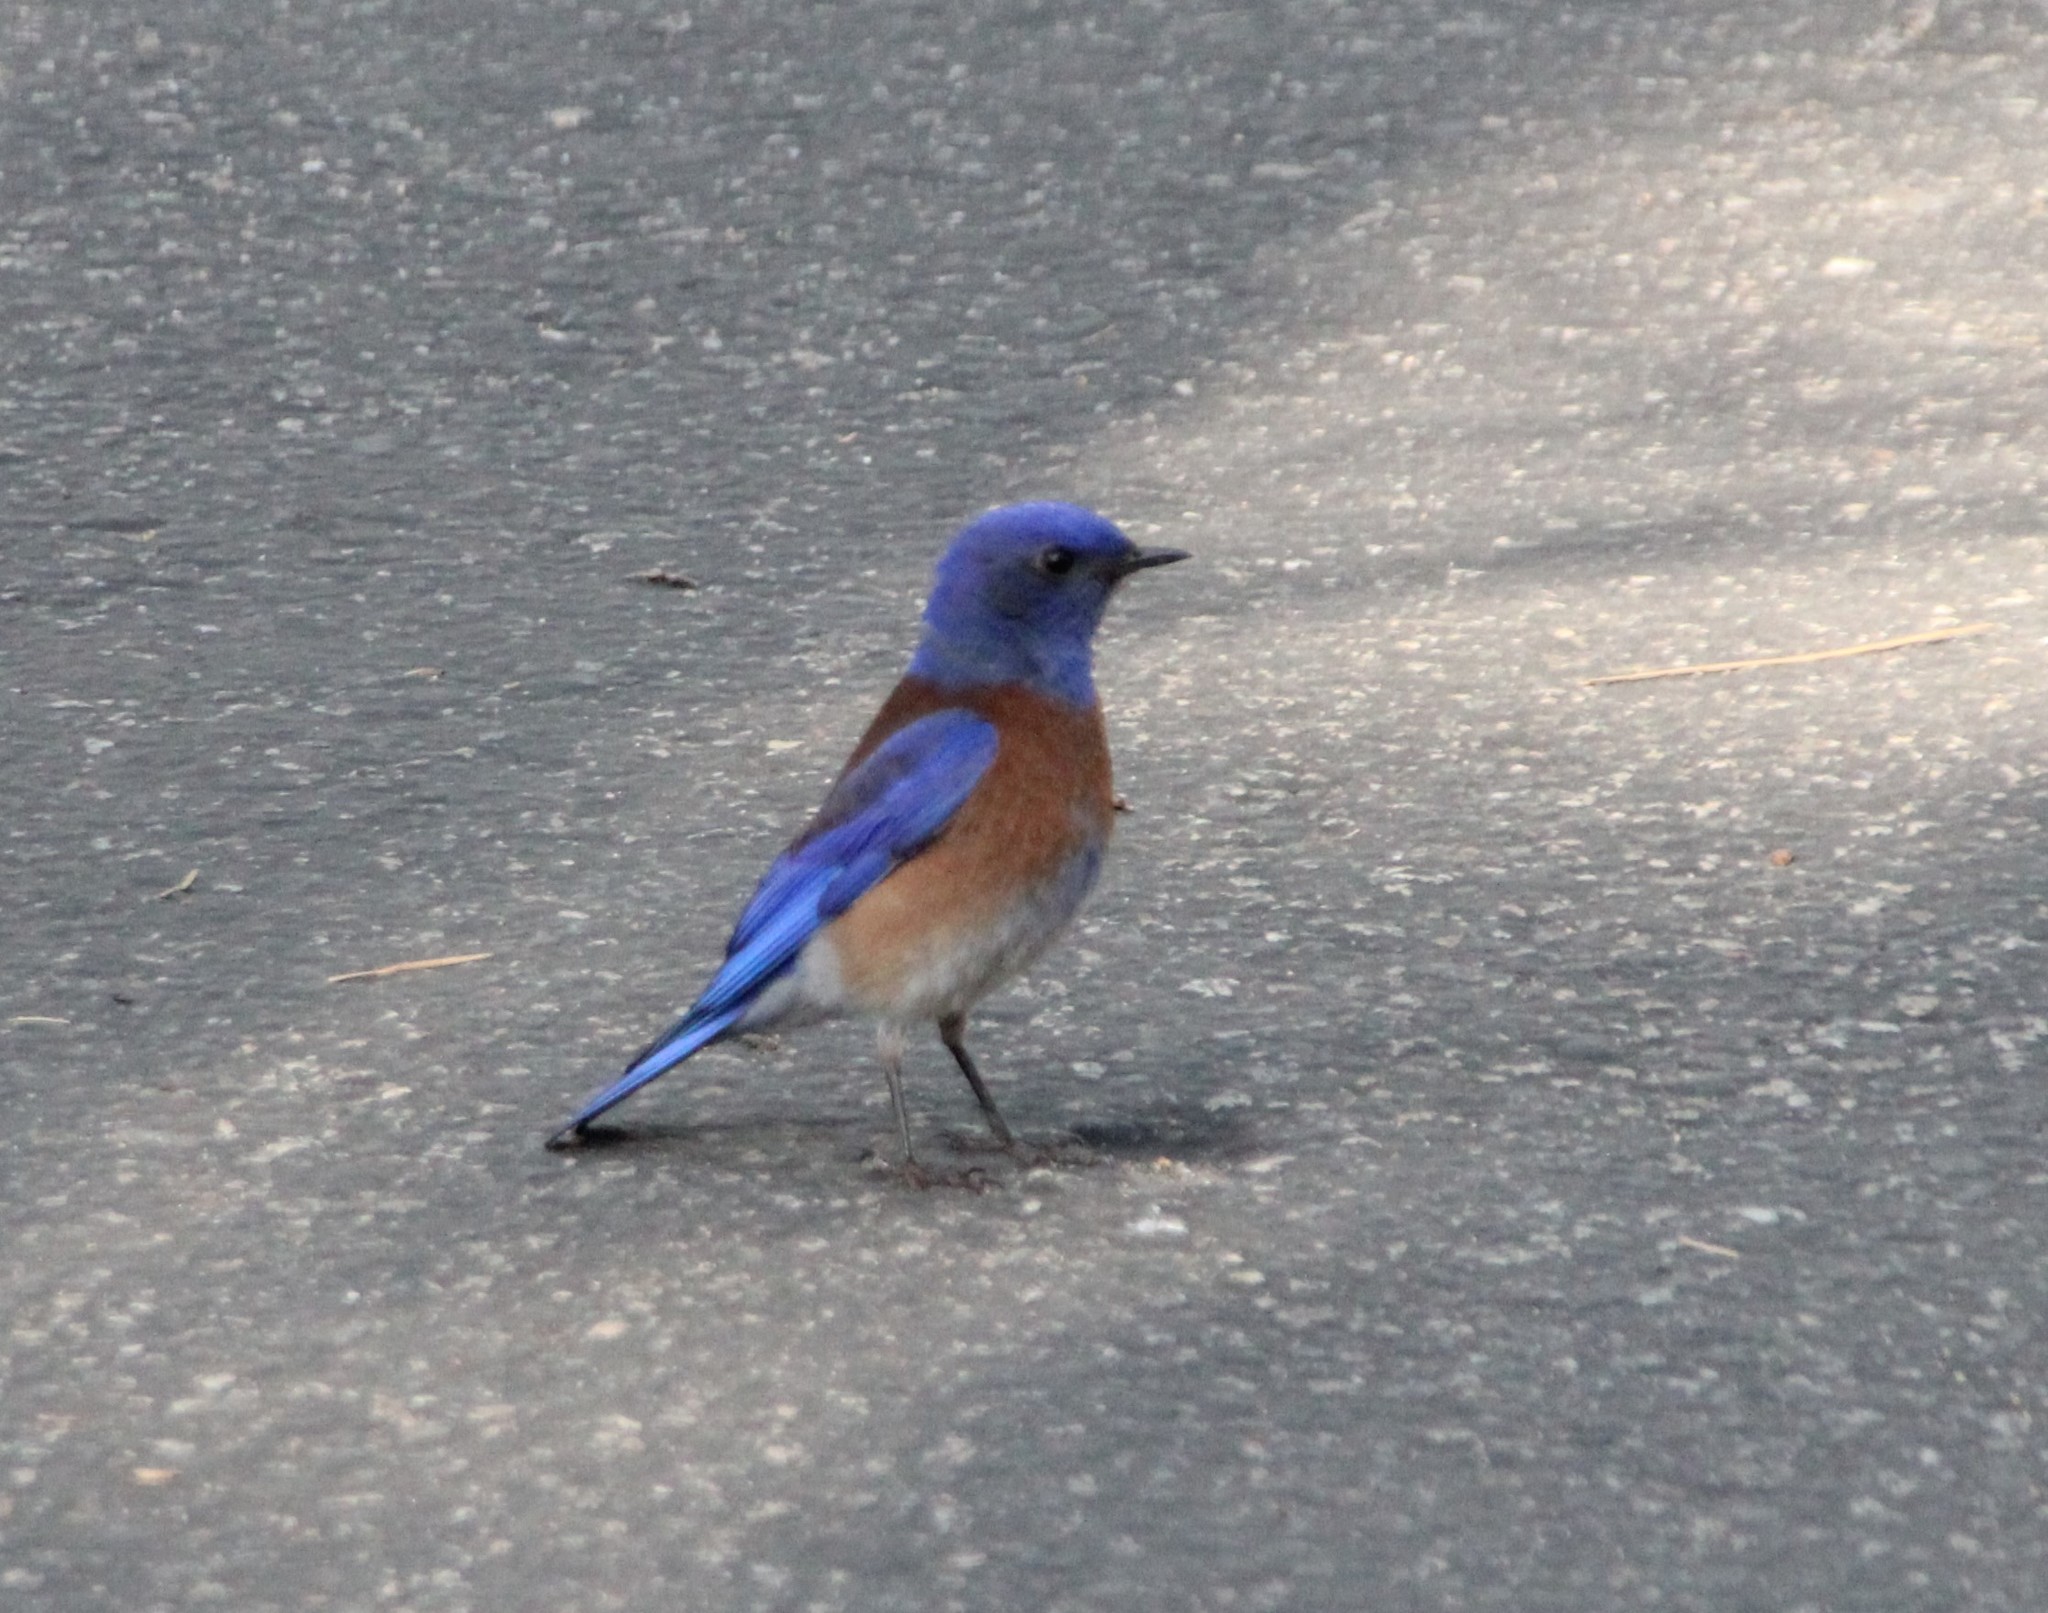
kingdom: Animalia
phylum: Chordata
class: Aves
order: Passeriformes
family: Turdidae
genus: Sialia
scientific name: Sialia mexicana
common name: Western bluebird
